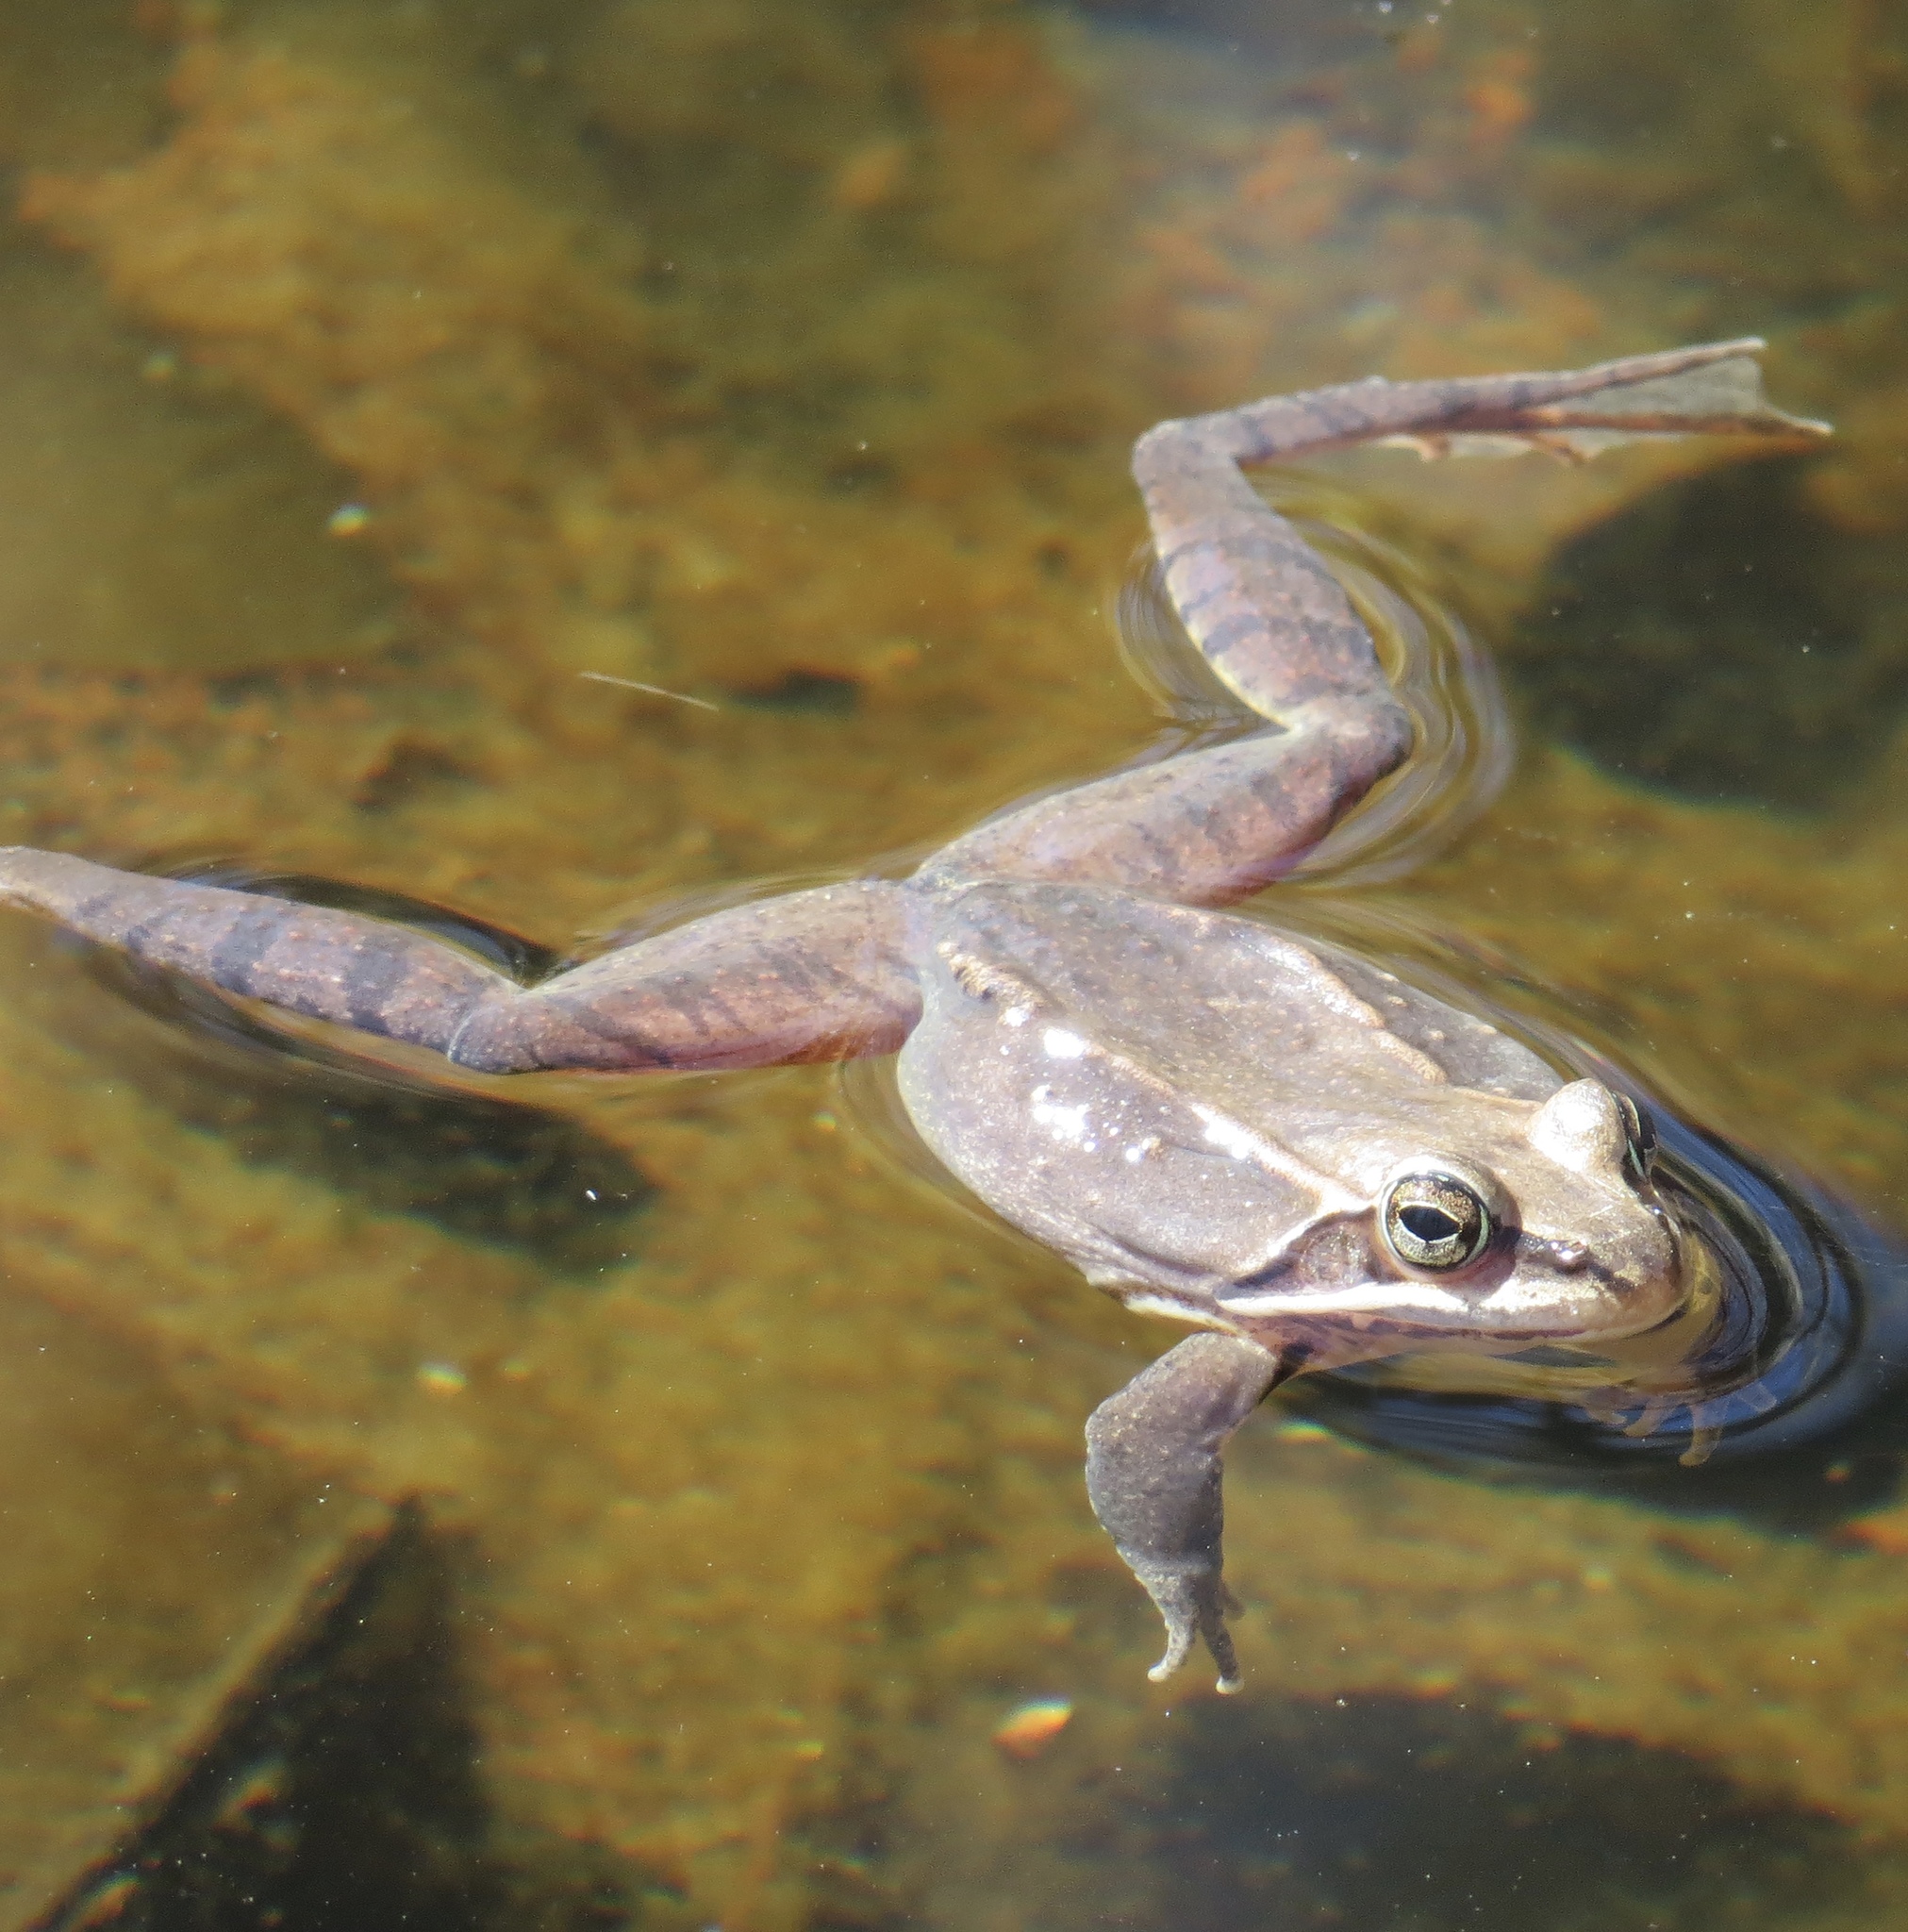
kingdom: Animalia
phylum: Chordata
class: Amphibia
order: Anura
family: Ranidae
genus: Lithobates
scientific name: Lithobates sylvaticus
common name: Wood frog
